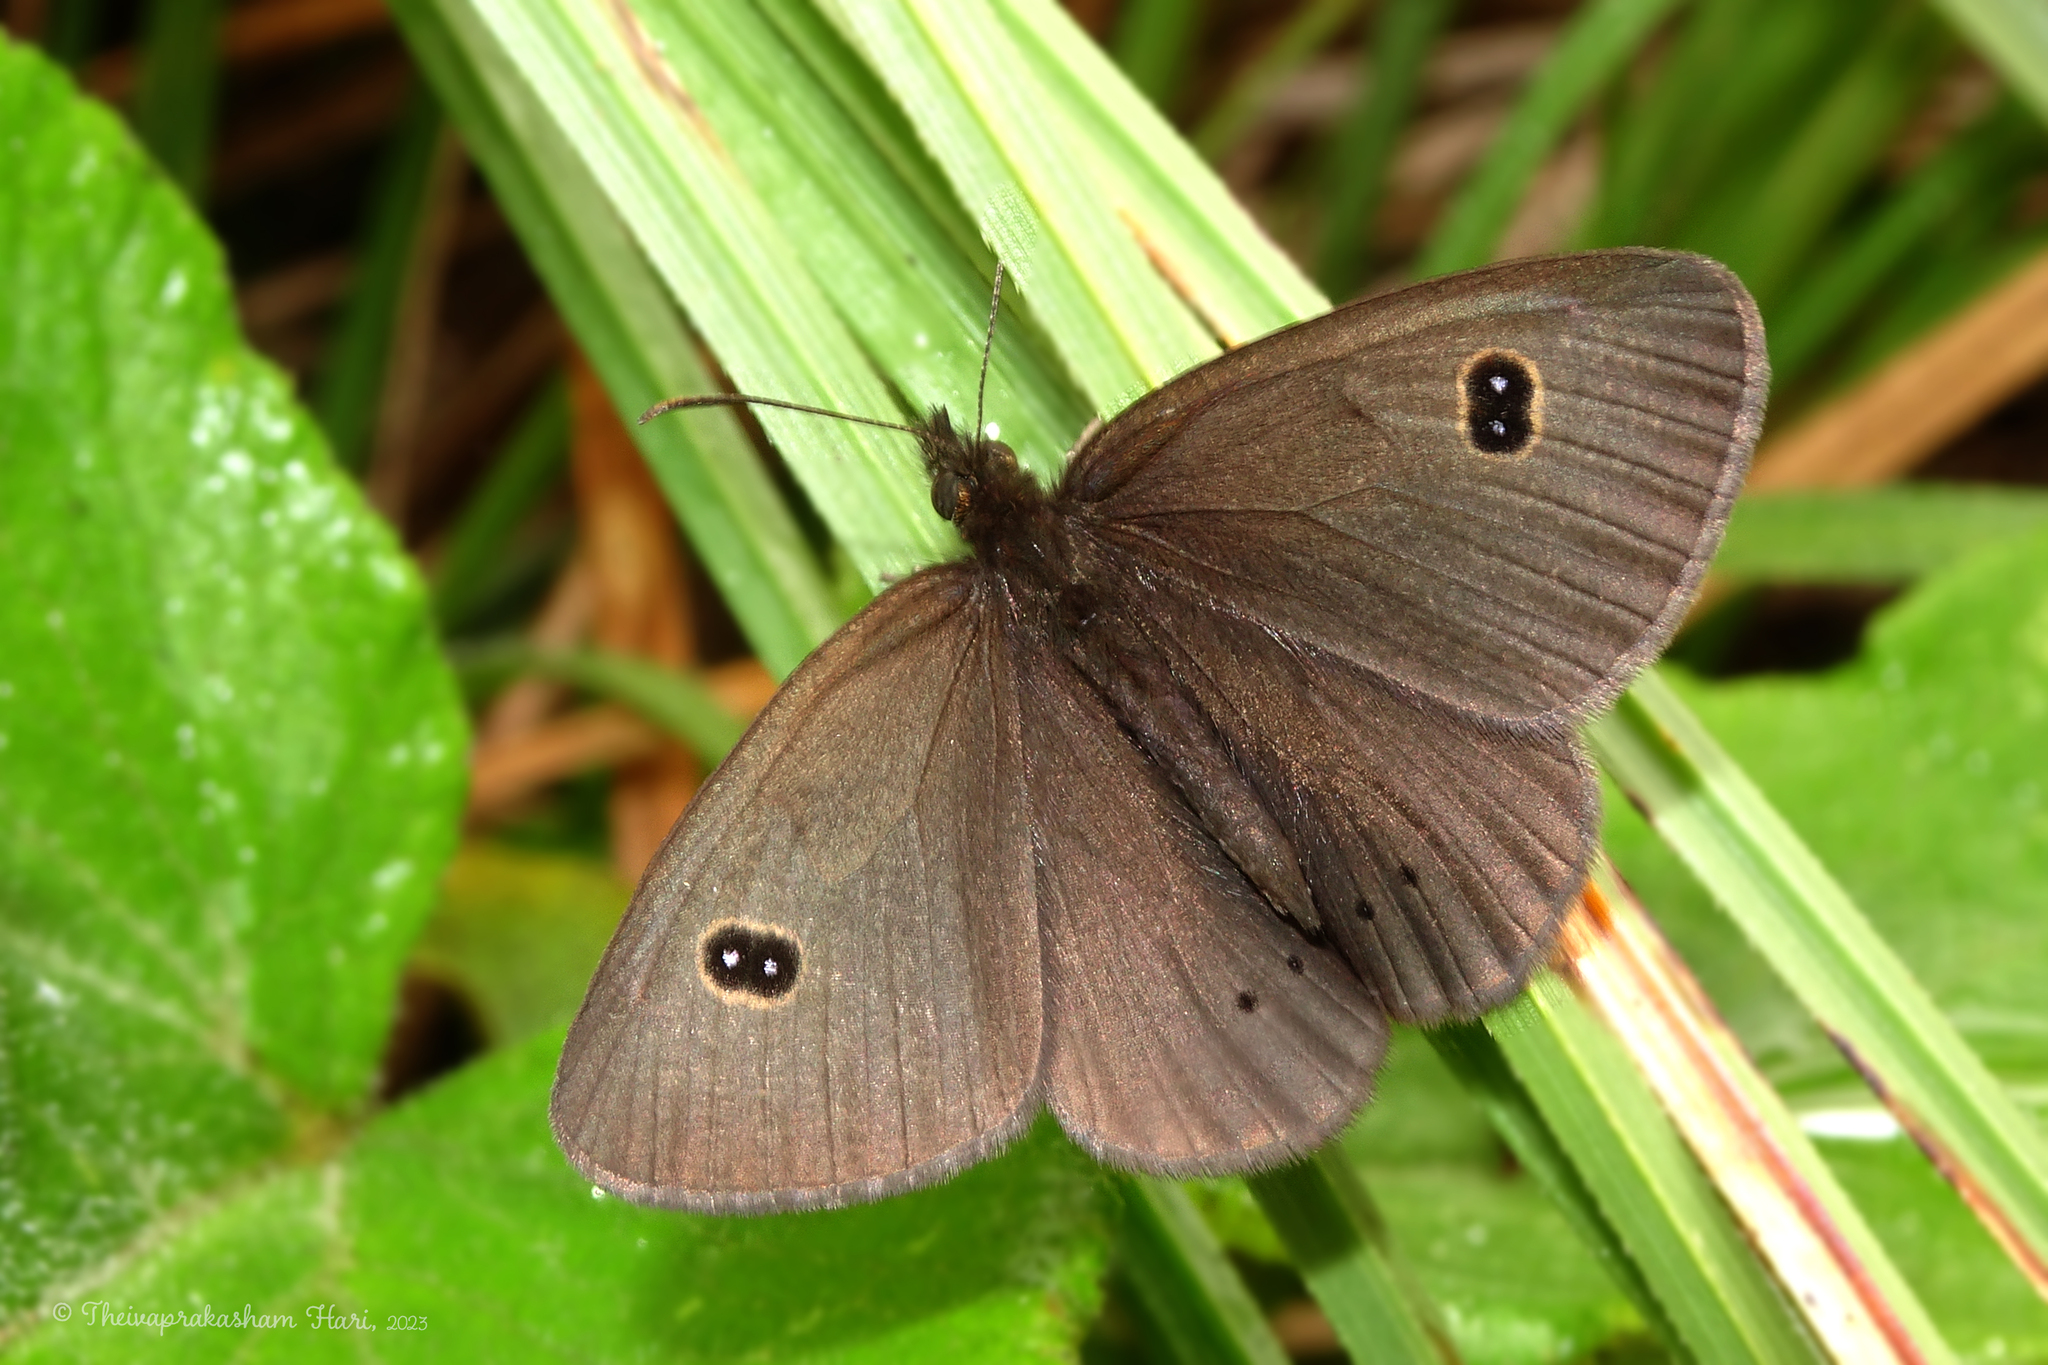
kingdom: Animalia
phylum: Arthropoda
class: Insecta
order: Lepidoptera
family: Nymphalidae
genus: Ypthima
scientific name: Ypthima ypthimoides
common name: Palni four-ring
